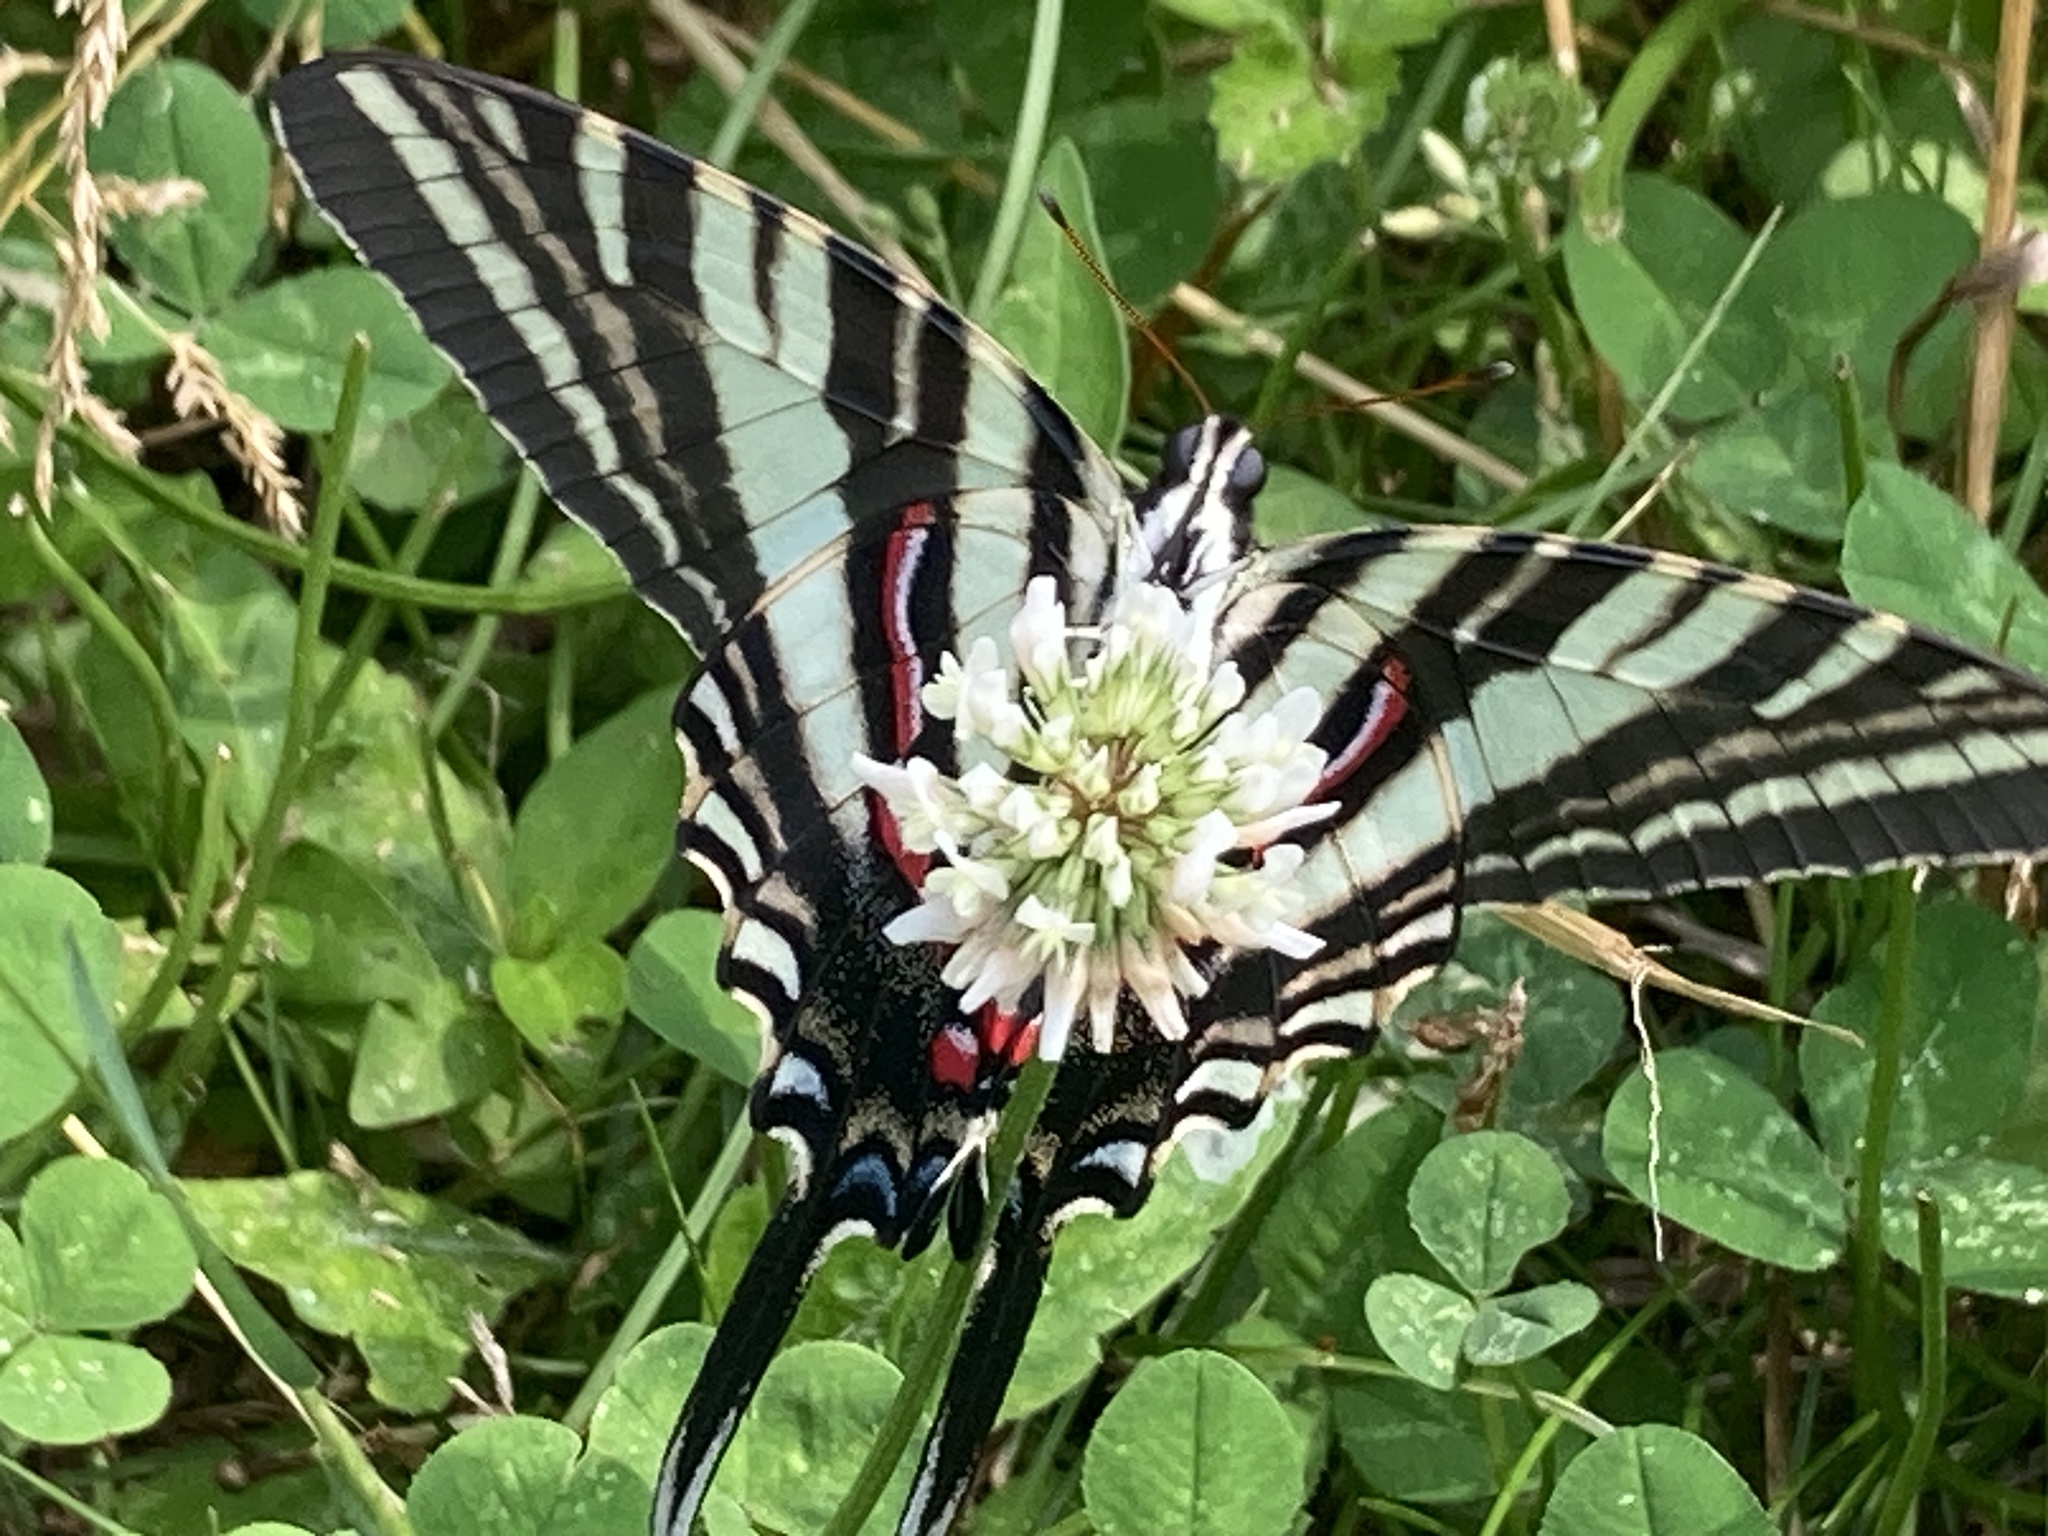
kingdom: Animalia
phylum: Arthropoda
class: Insecta
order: Lepidoptera
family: Papilionidae
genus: Protographium
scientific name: Protographium marcellus
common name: Zebra swallowtail
